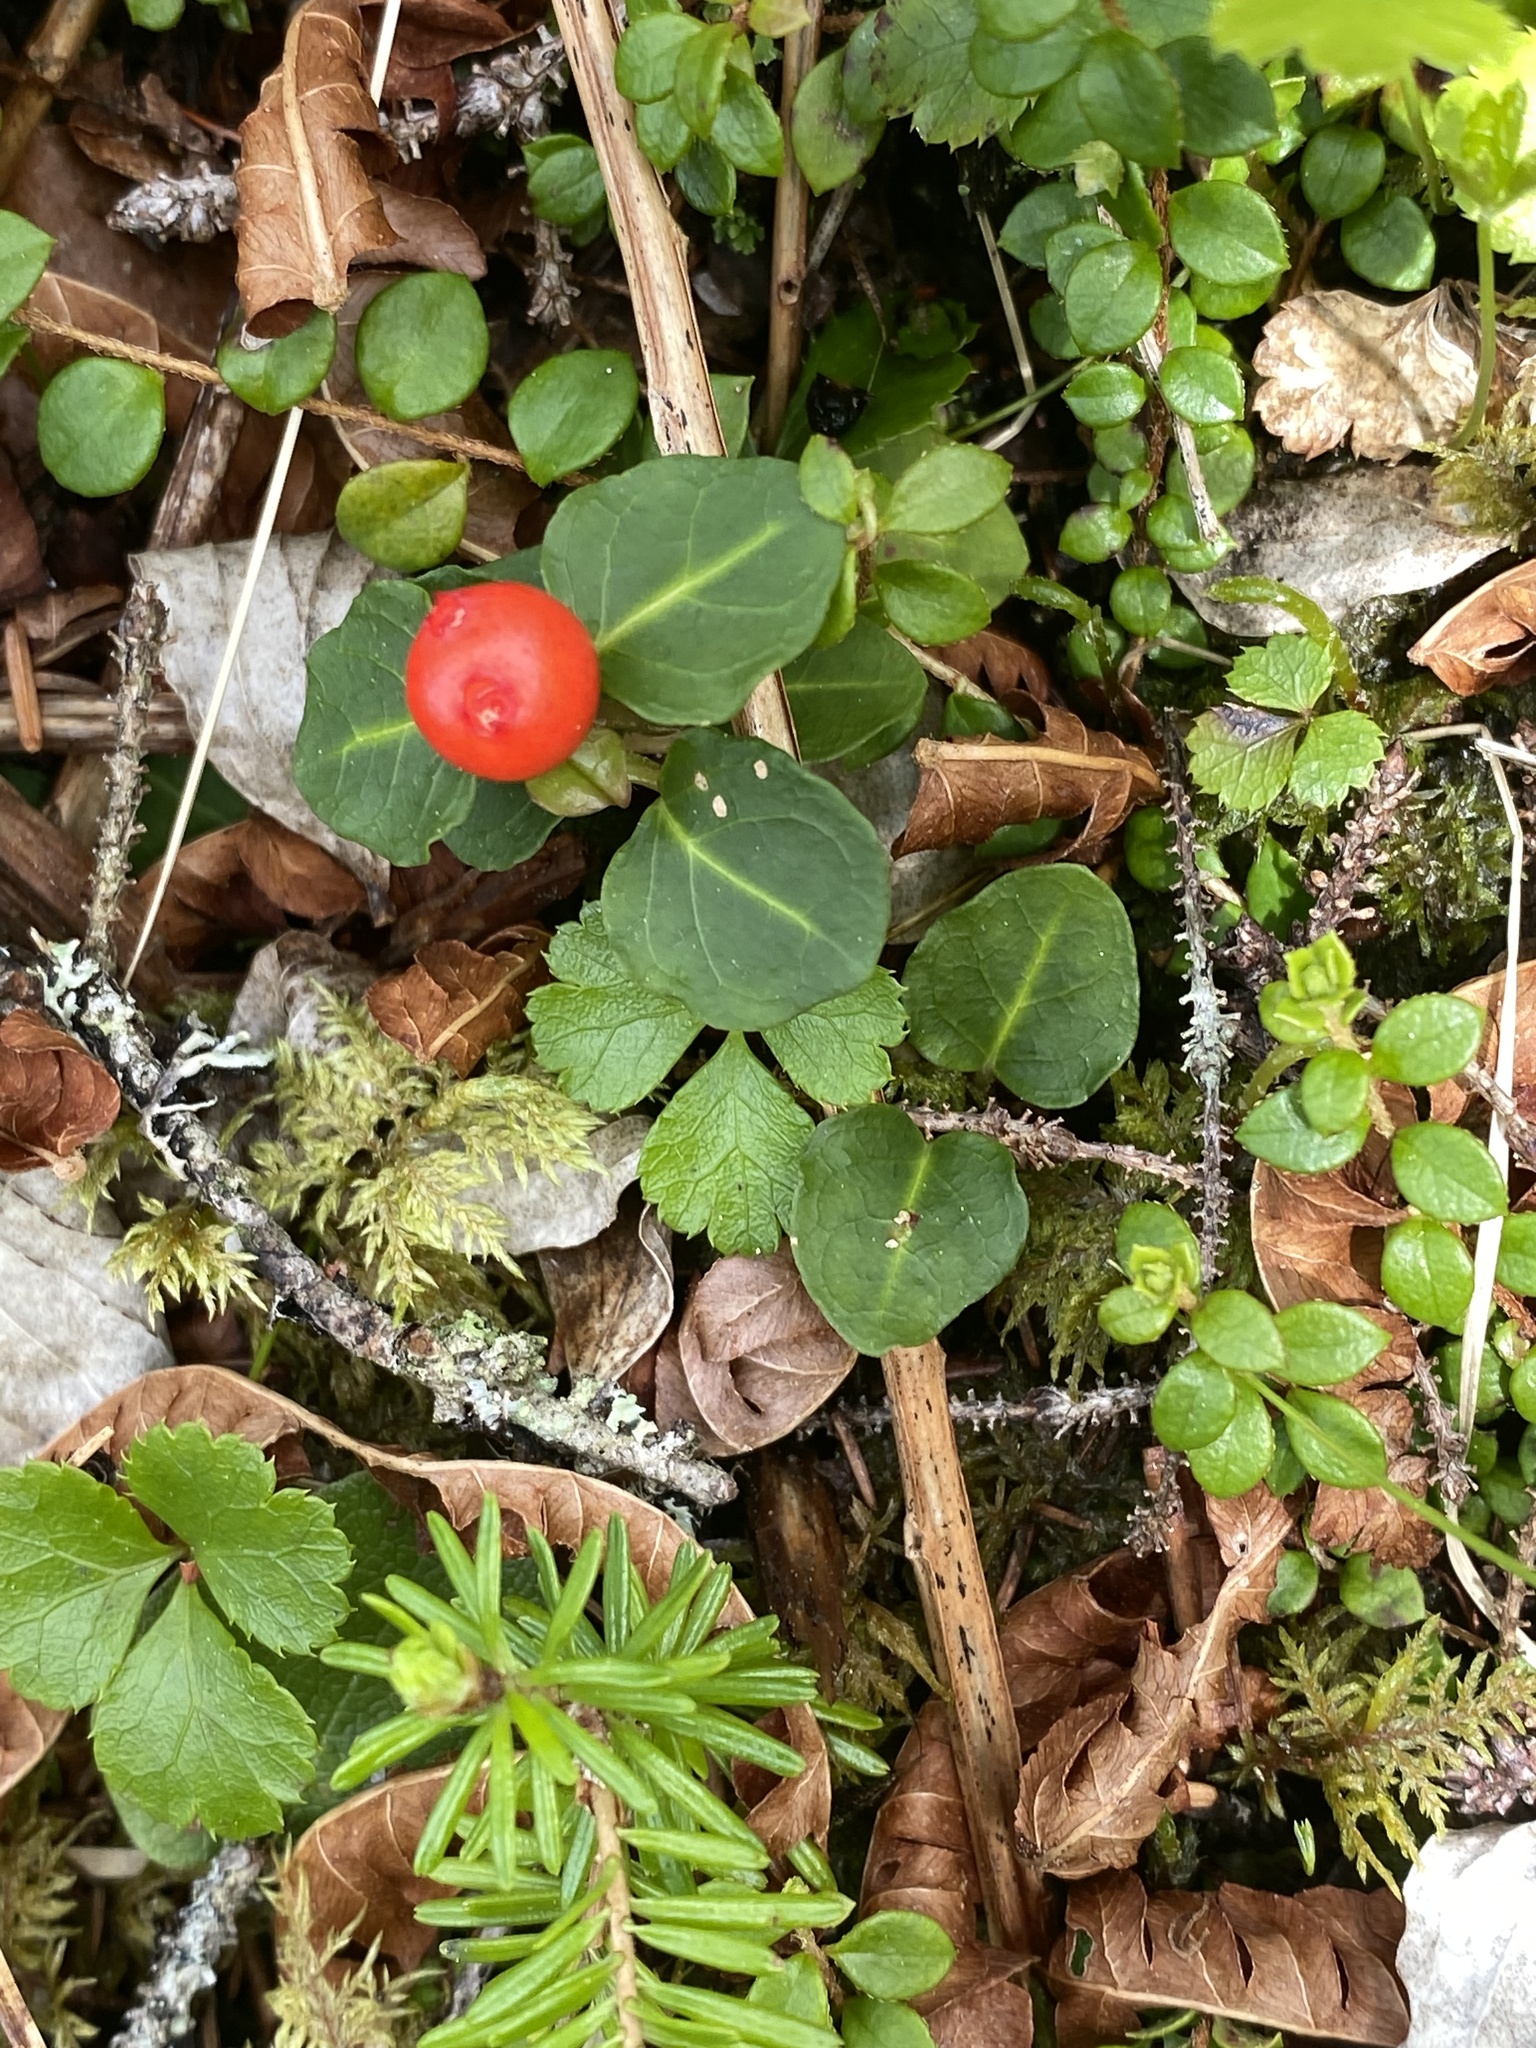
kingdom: Plantae
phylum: Tracheophyta
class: Magnoliopsida
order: Gentianales
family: Rubiaceae
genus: Mitchella
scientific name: Mitchella repens
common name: Partridge-berry
